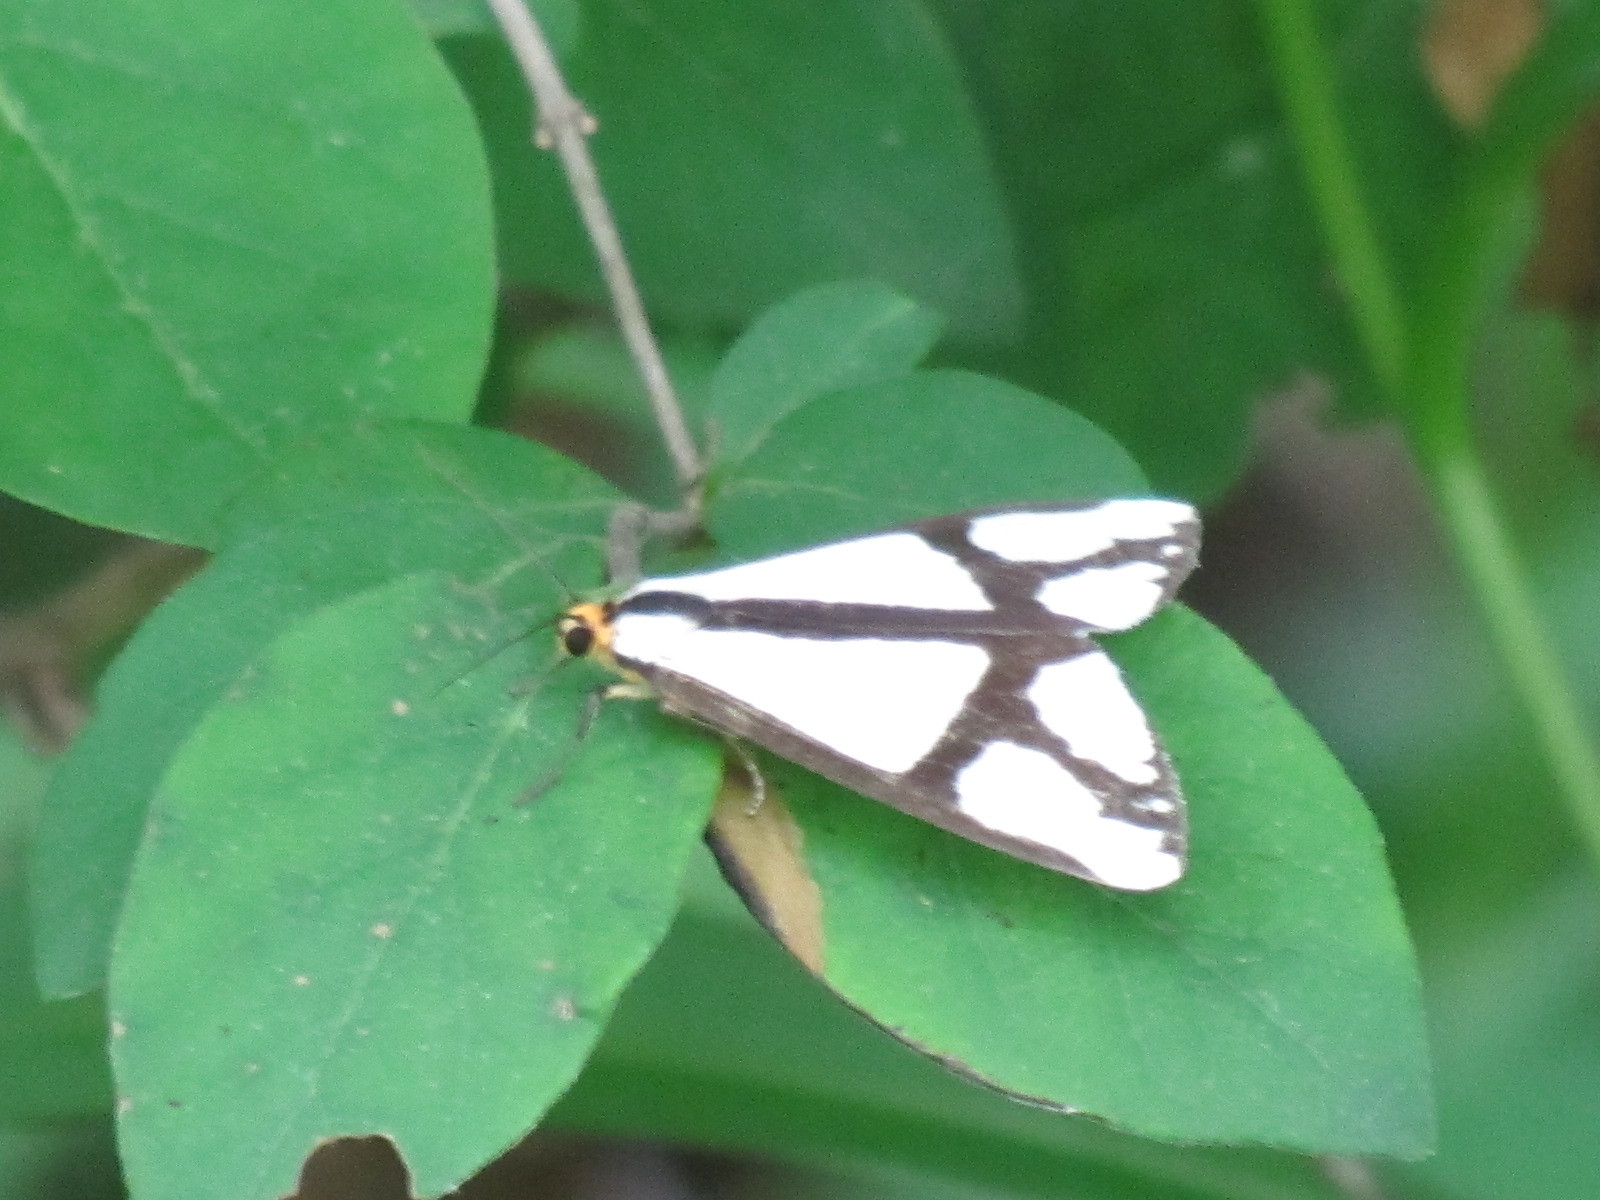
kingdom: Animalia
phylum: Arthropoda
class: Insecta
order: Lepidoptera
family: Erebidae
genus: Haploa
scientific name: Haploa contigua
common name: Neighbor moth
